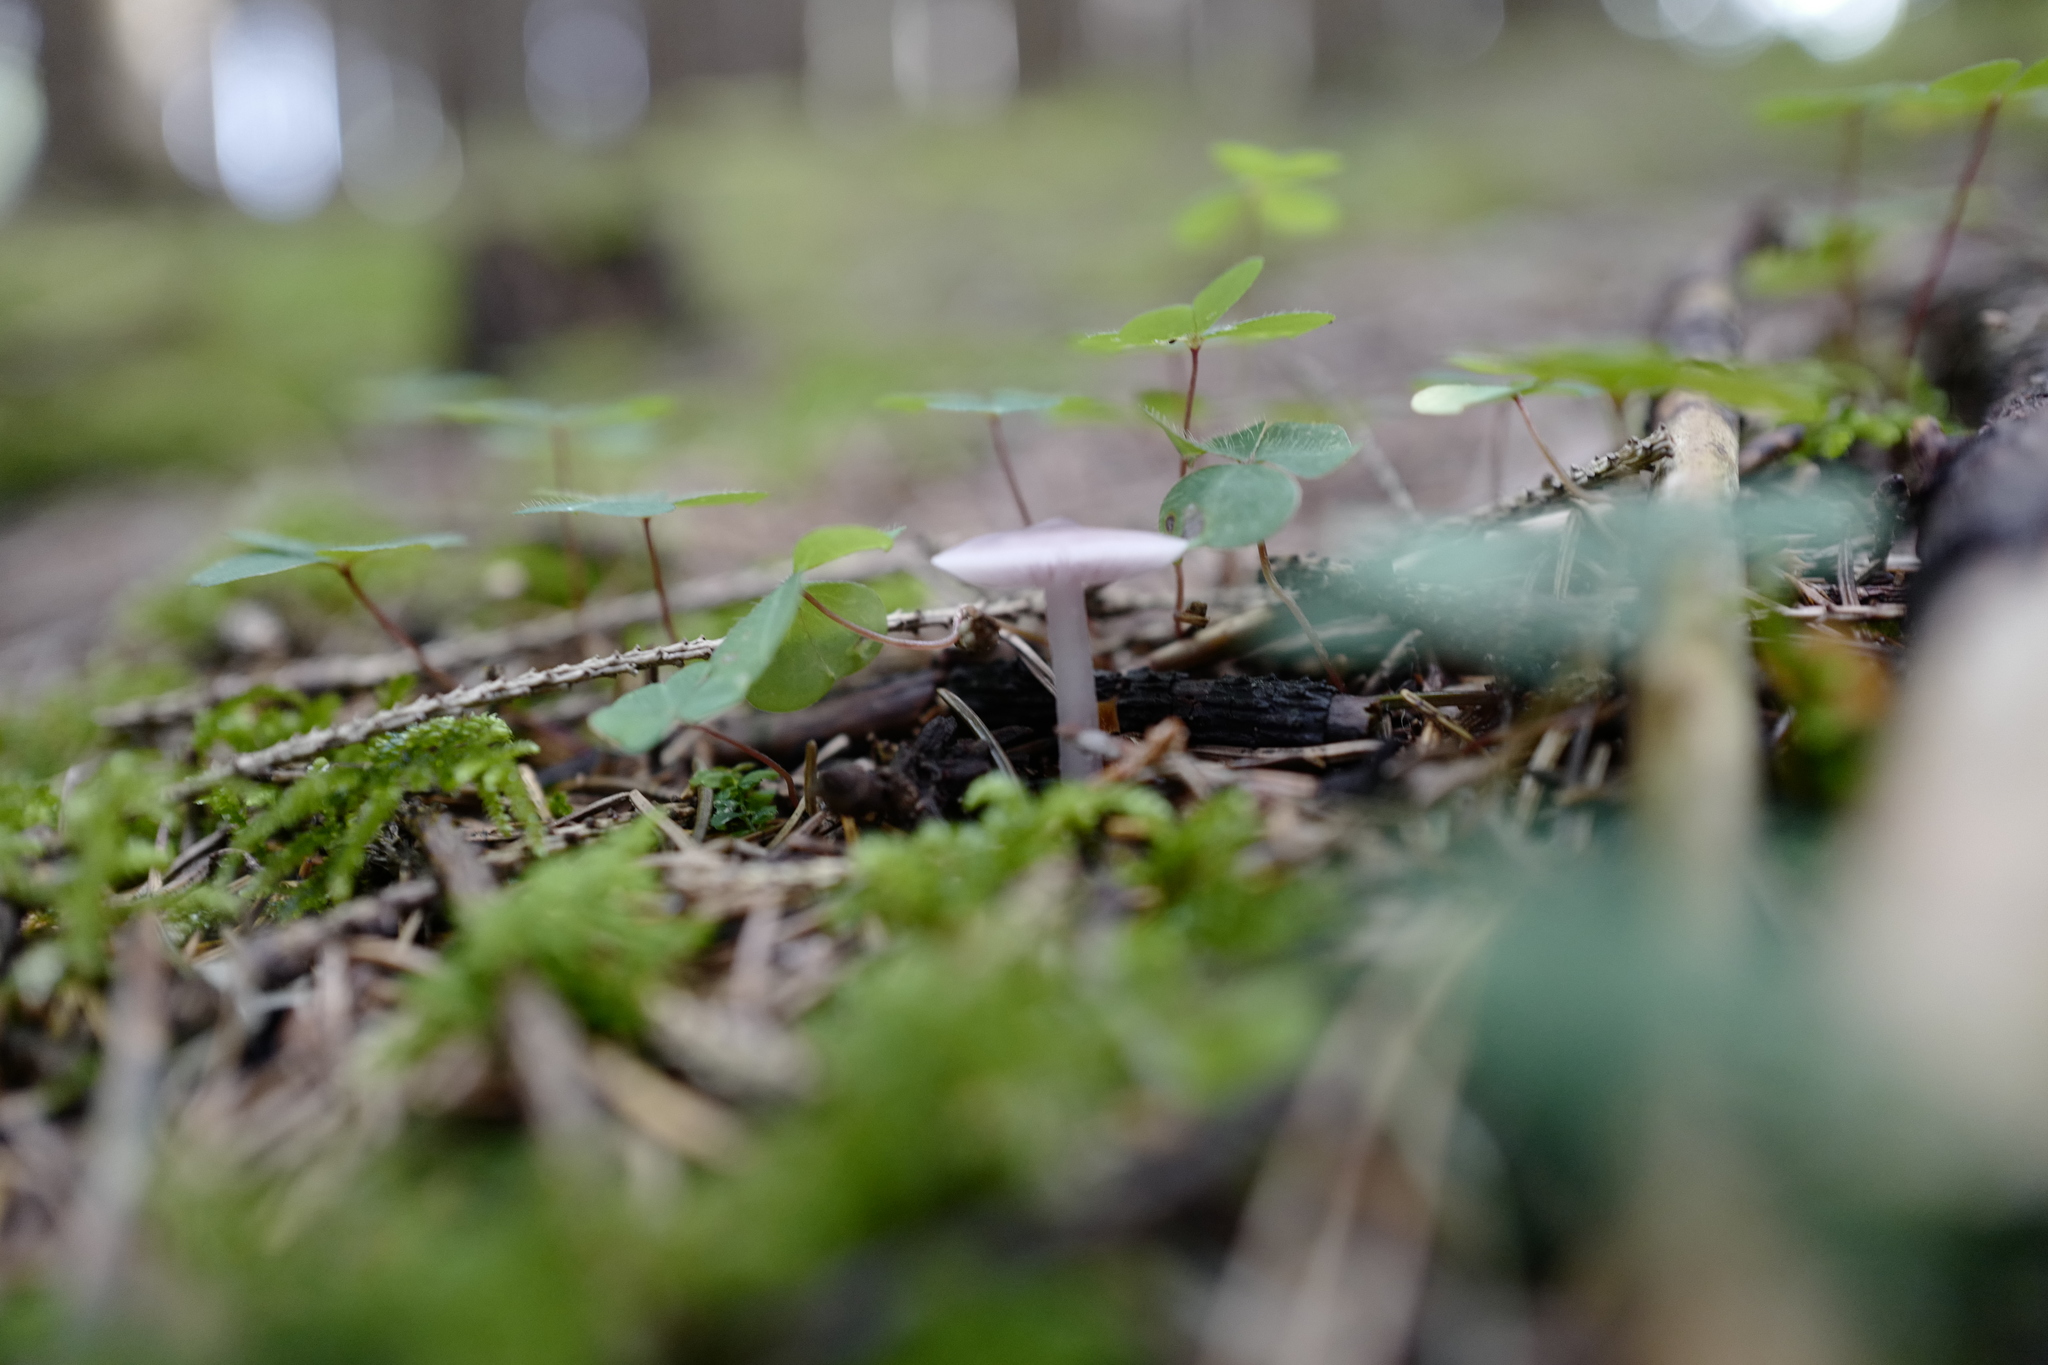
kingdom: Fungi
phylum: Basidiomycota
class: Agaricomycetes
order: Agaricales
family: Mycenaceae
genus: Mycena
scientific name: Mycena pura
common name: Lilac bonnet
